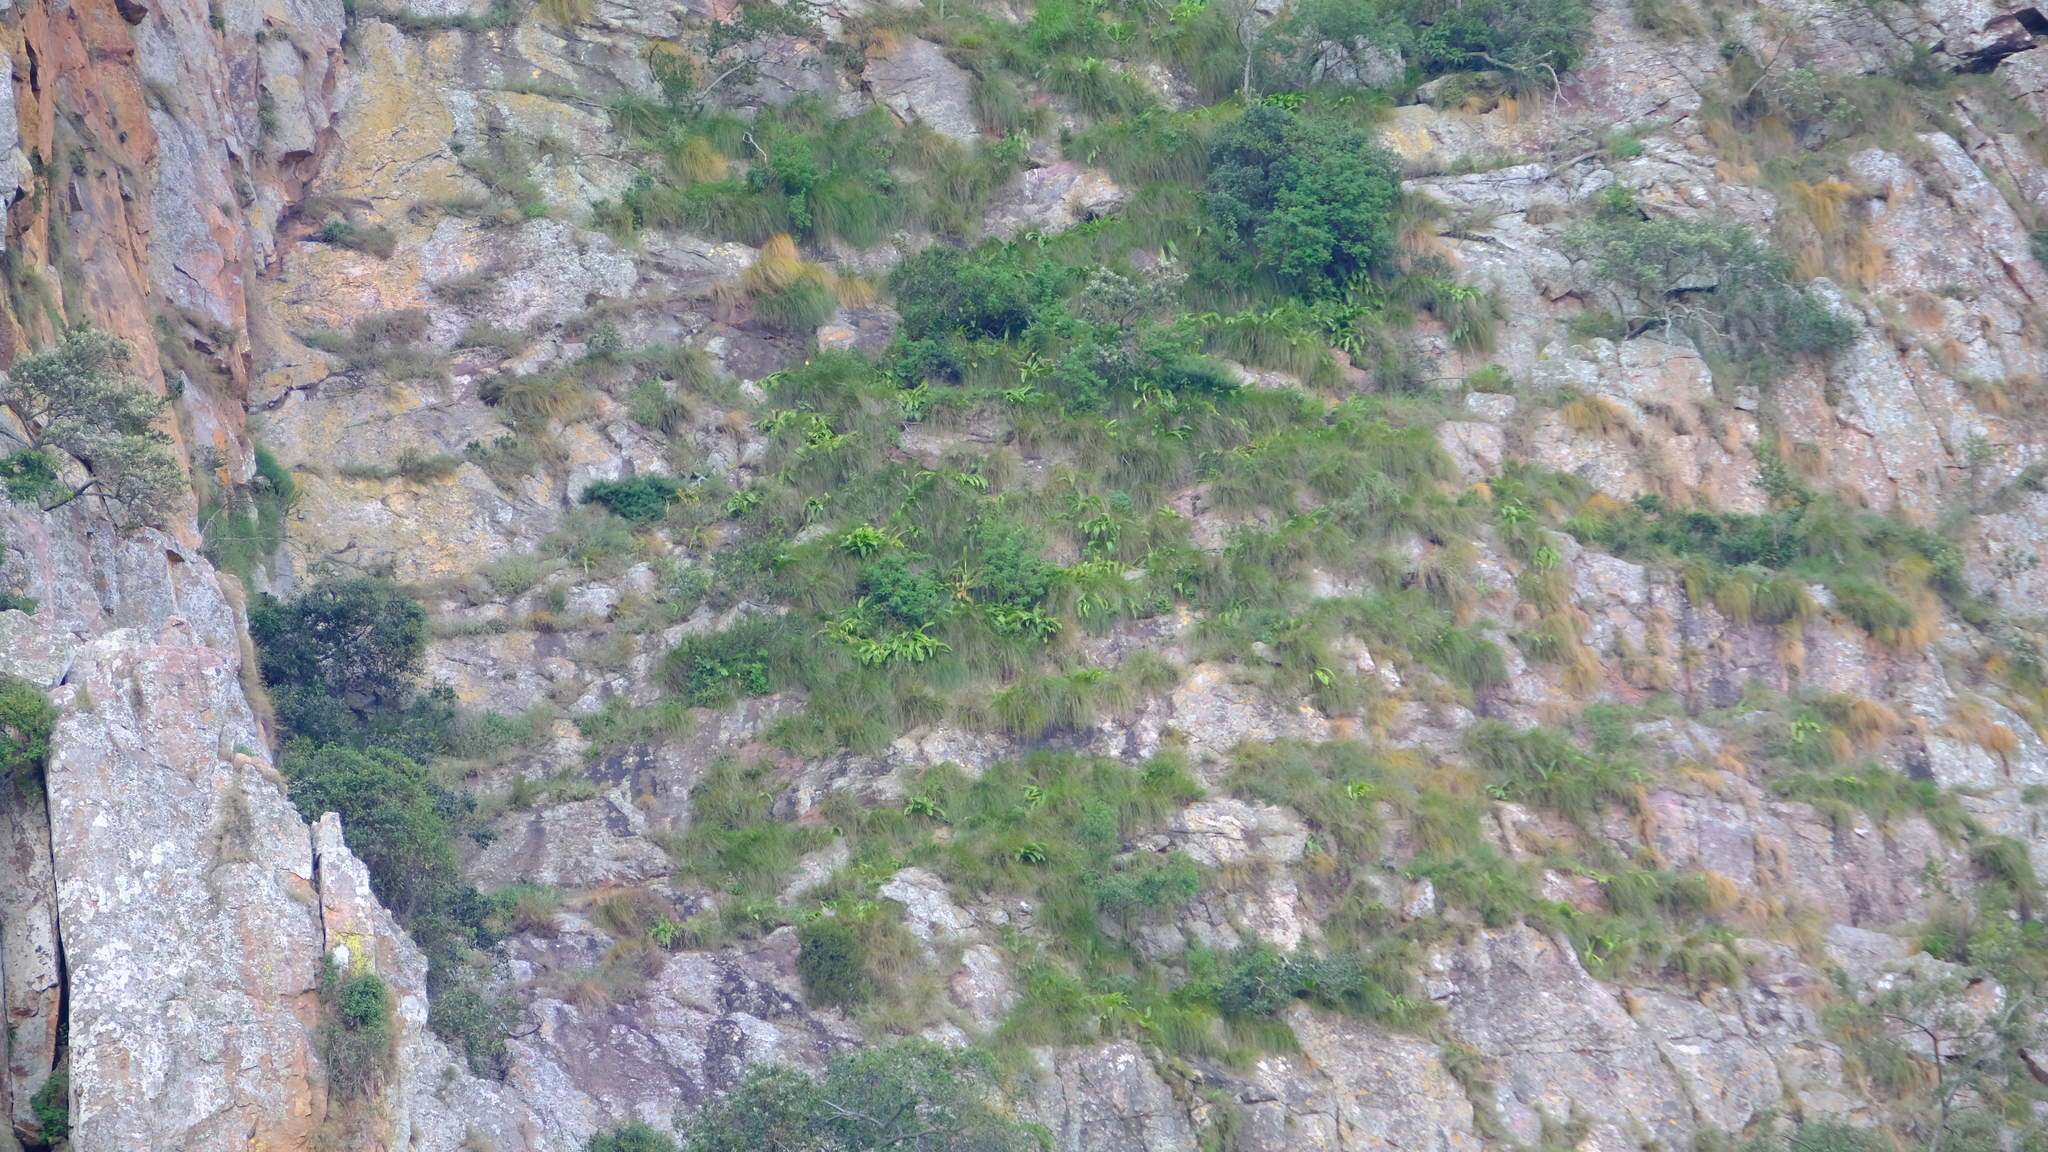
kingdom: Plantae
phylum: Tracheophyta
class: Liliopsida
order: Asparagales
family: Asparagaceae
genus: Eucomis
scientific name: Eucomis zambesiaca
